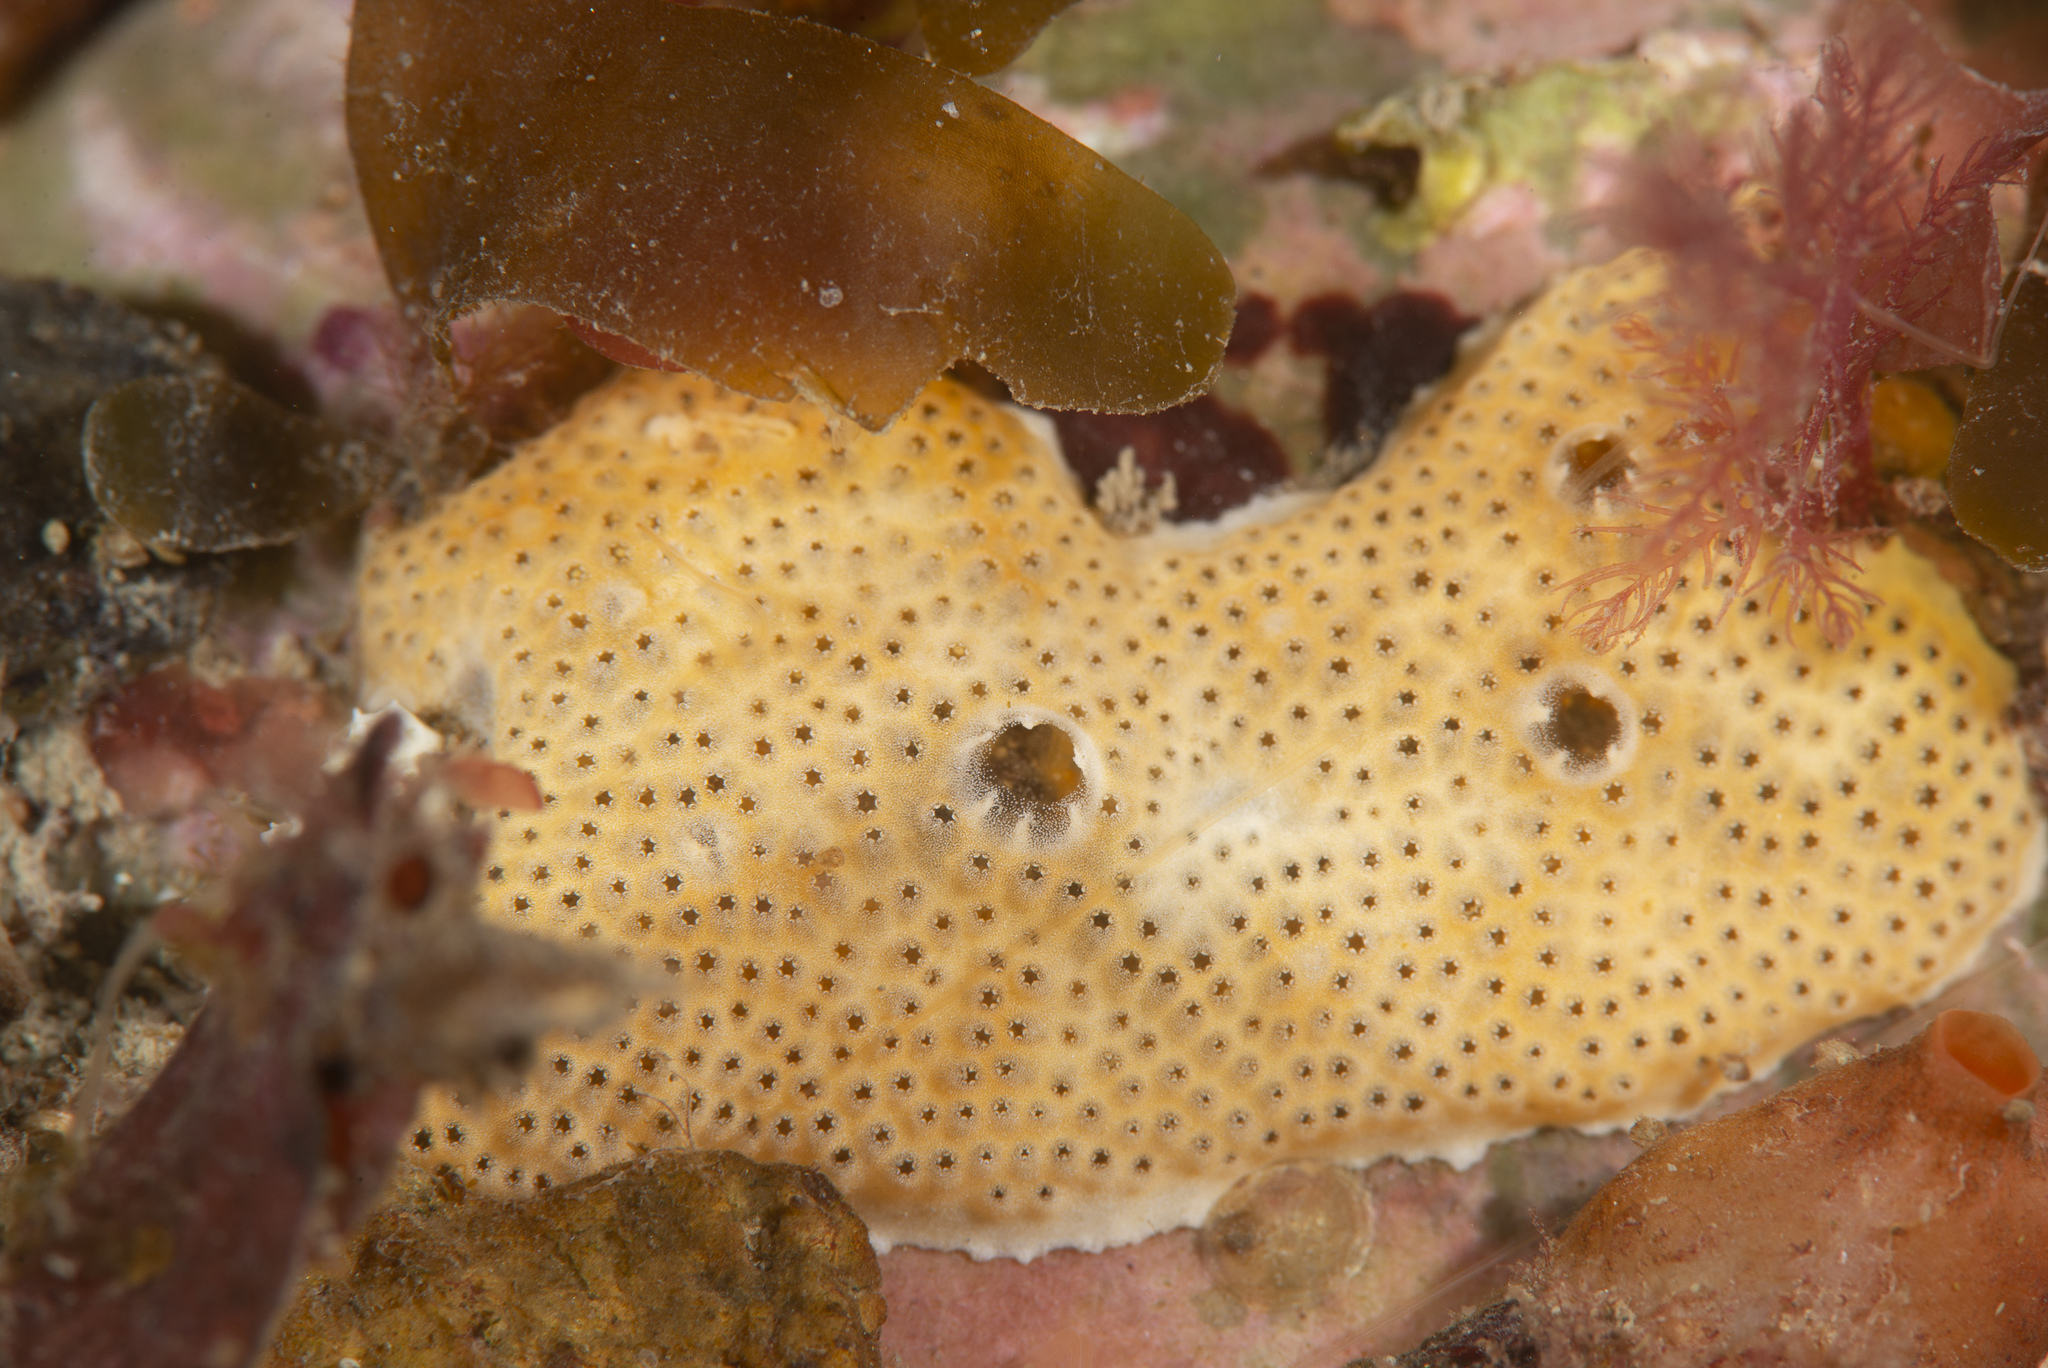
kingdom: Animalia
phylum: Chordata
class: Ascidiacea
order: Aplousobranchia
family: Didemnidae
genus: Polysyncraton
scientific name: Polysyncraton bilobatum
